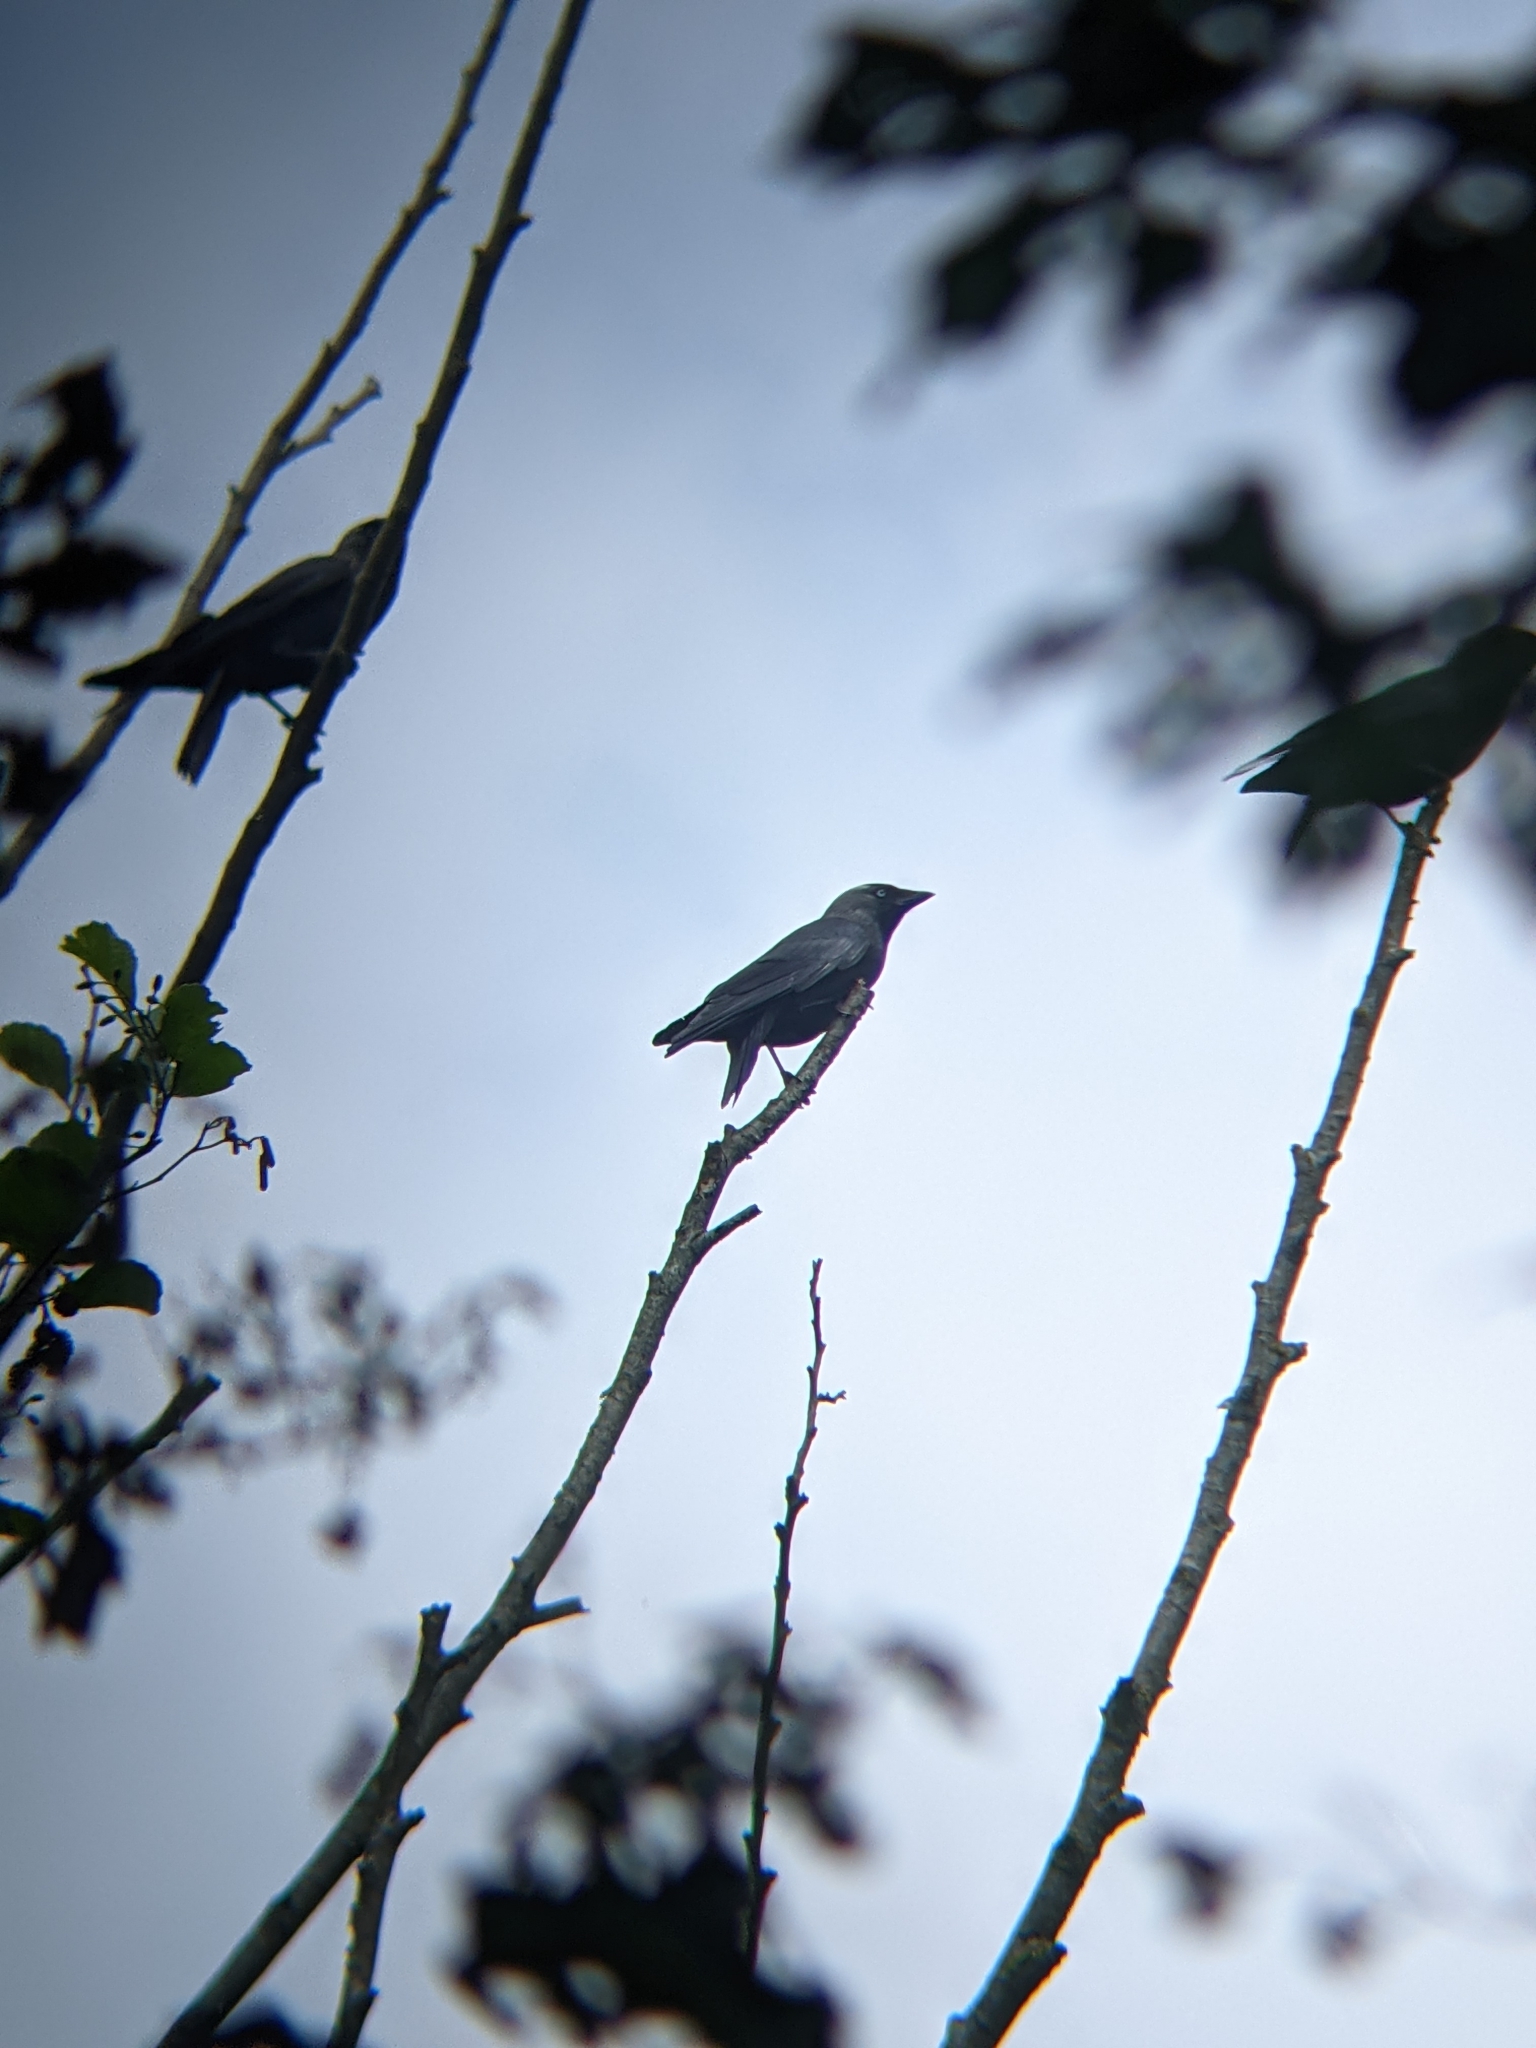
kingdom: Animalia
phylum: Chordata
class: Aves
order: Passeriformes
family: Corvidae
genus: Coloeus
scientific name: Coloeus monedula
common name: Western jackdaw
